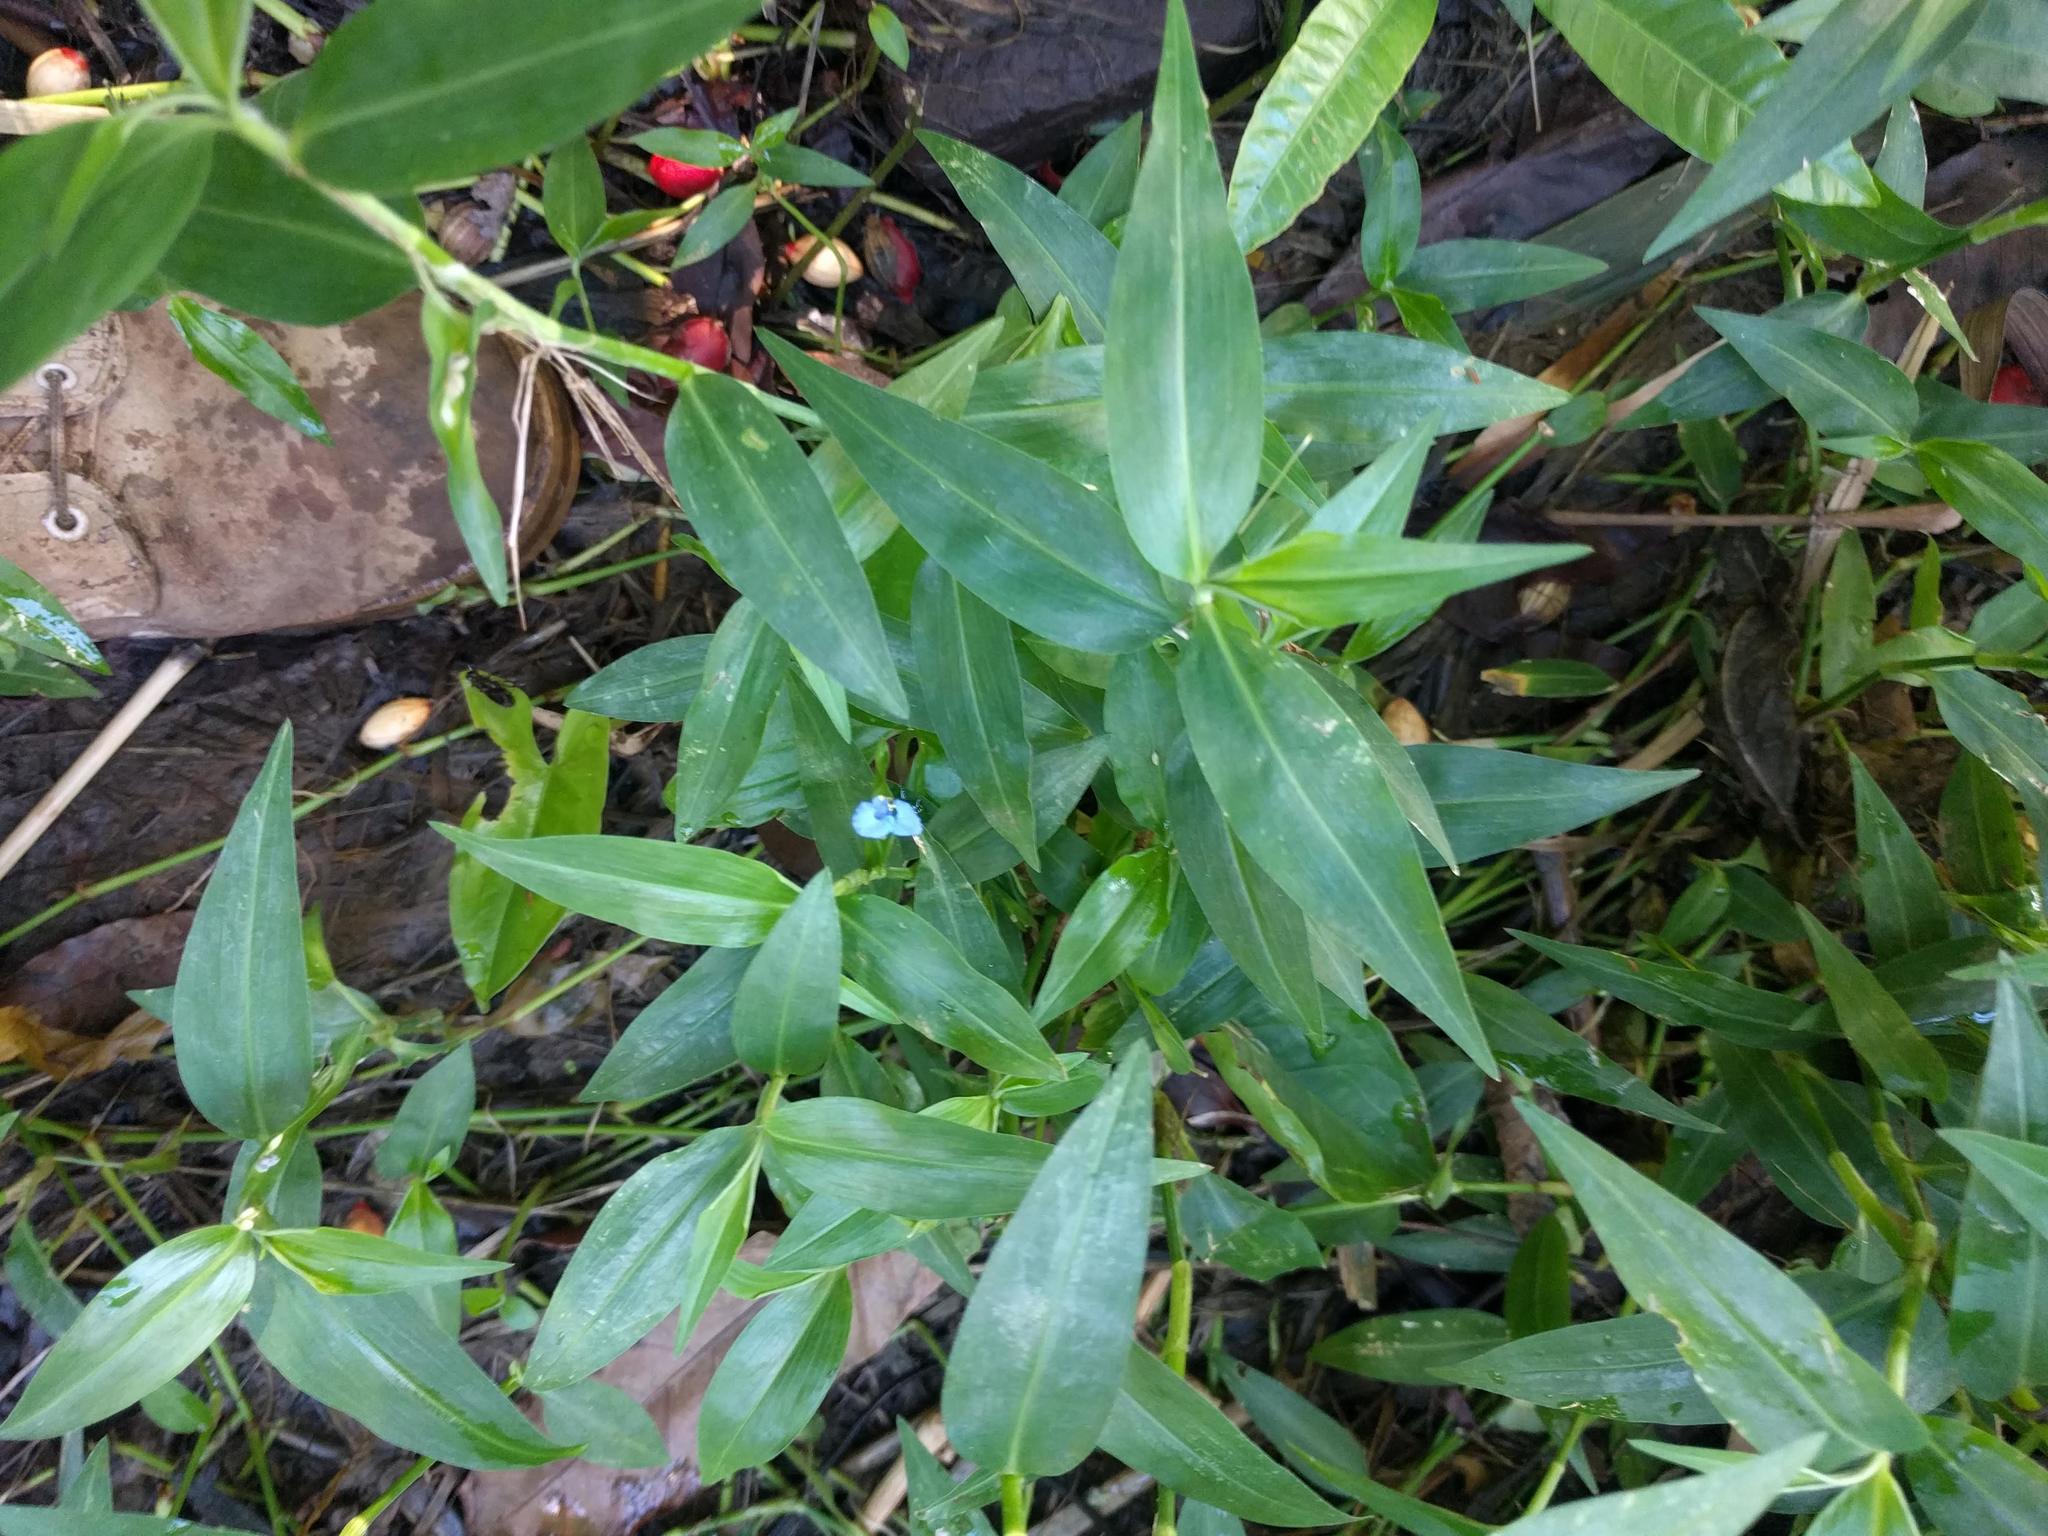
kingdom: Plantae
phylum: Tracheophyta
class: Liliopsida
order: Commelinales
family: Commelinaceae
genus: Commelina
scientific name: Commelina diffusa
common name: Climbing dayflower
